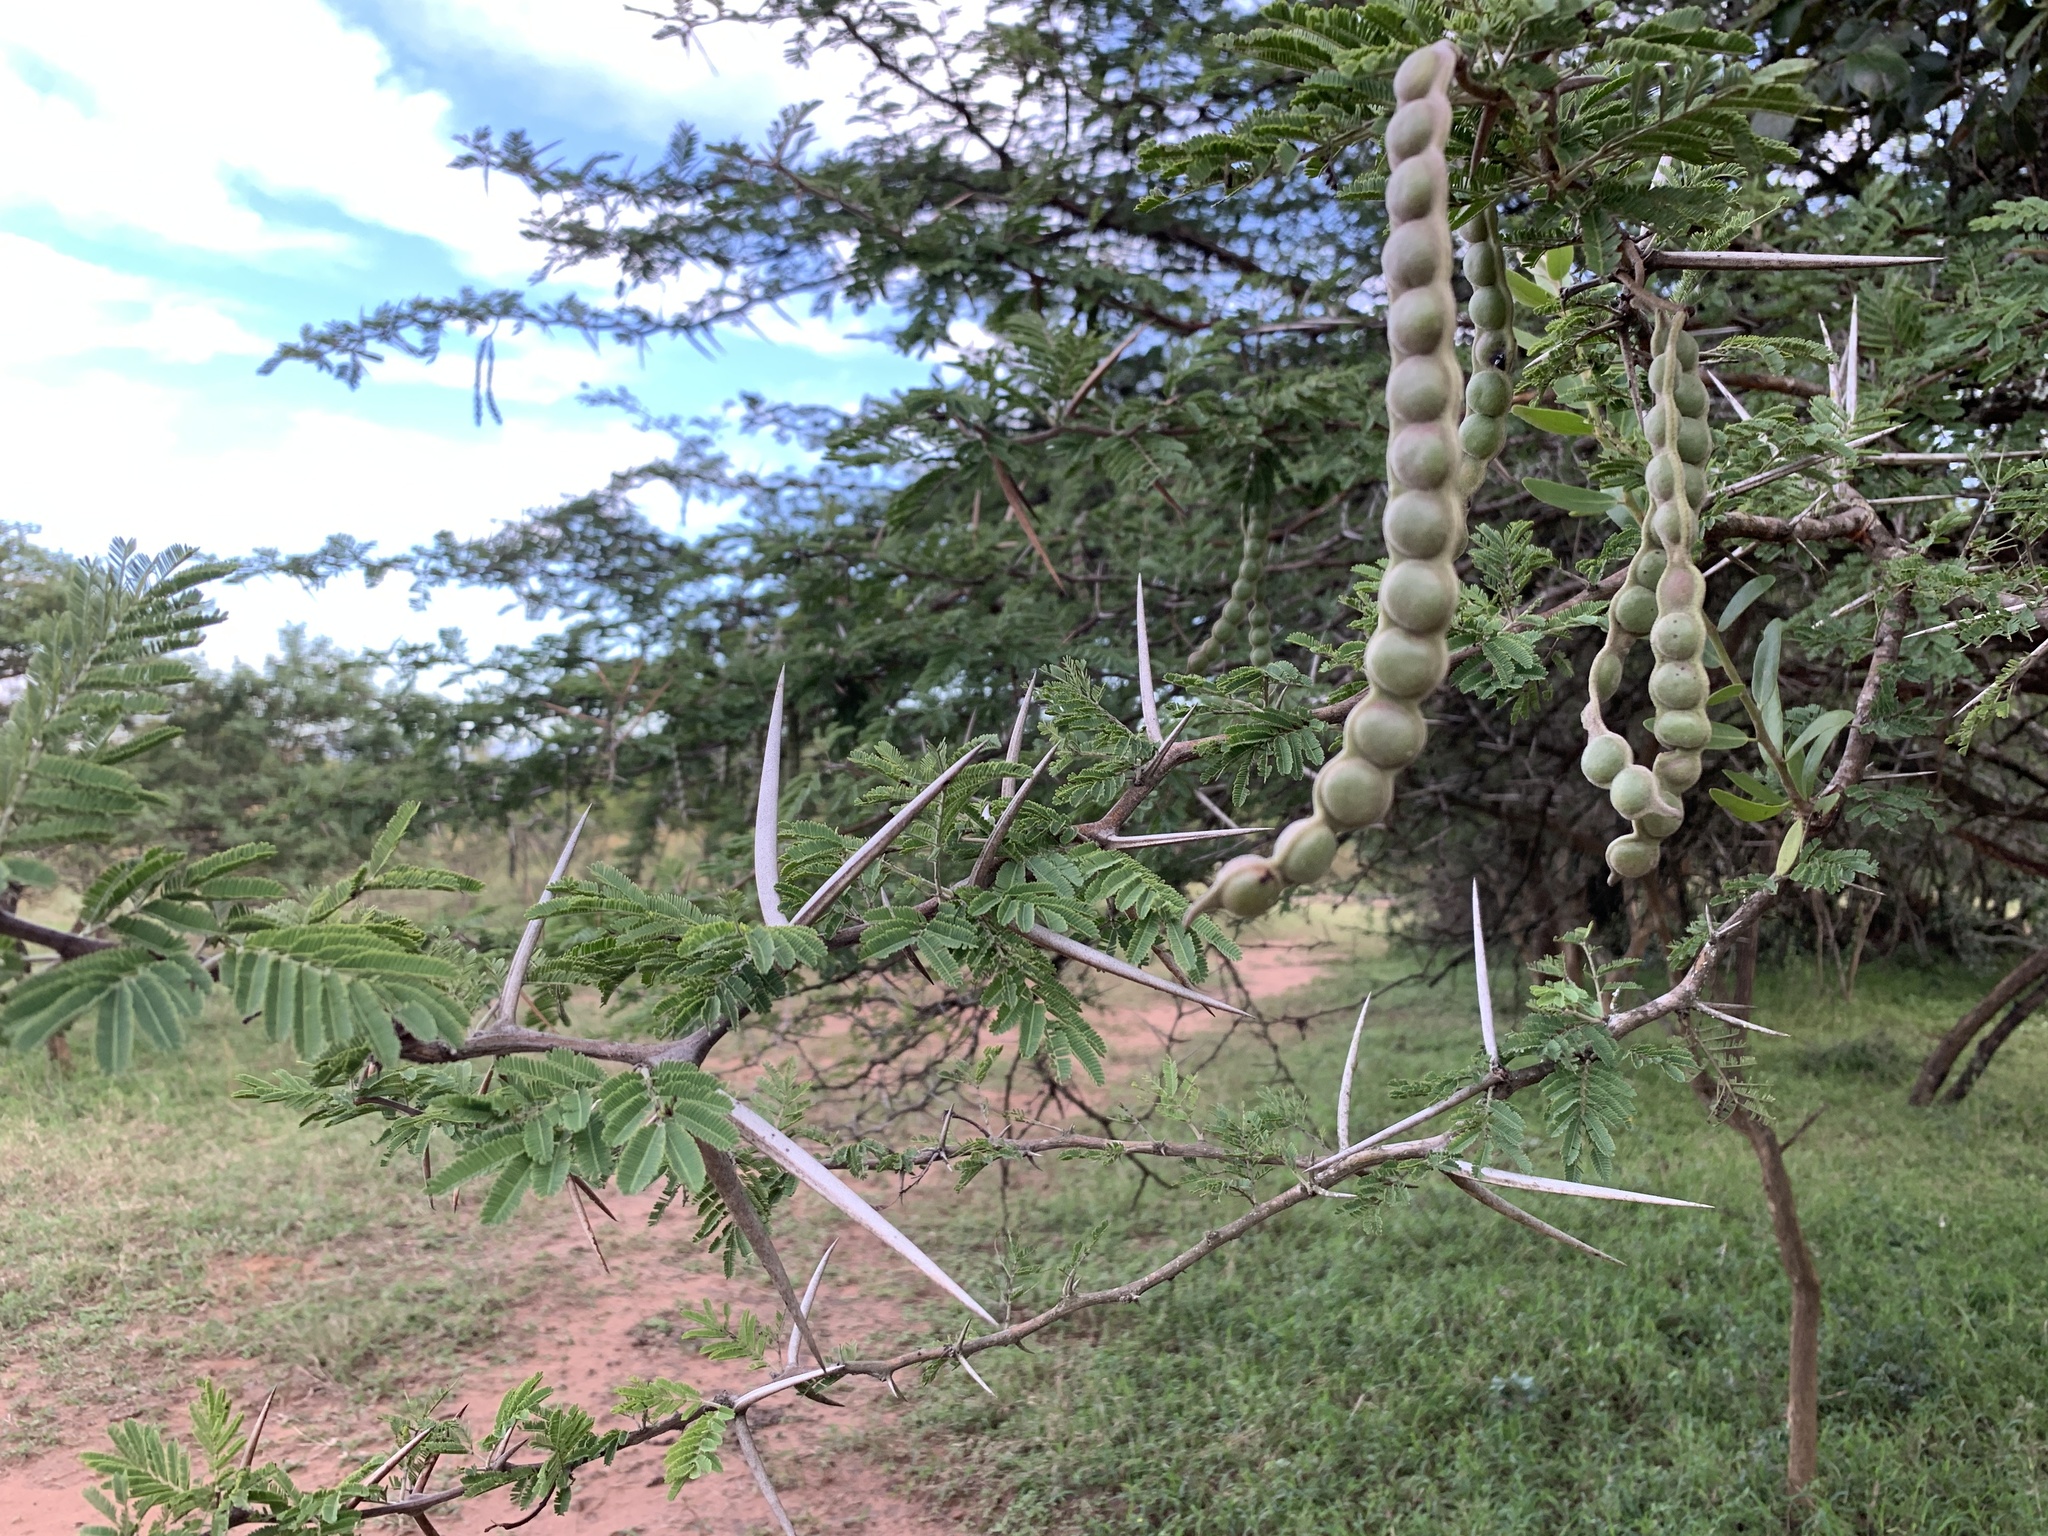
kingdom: Plantae
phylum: Tracheophyta
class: Magnoliopsida
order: Fabales
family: Fabaceae
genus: Vachellia
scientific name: Vachellia nilotica
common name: Arabic gumtree
